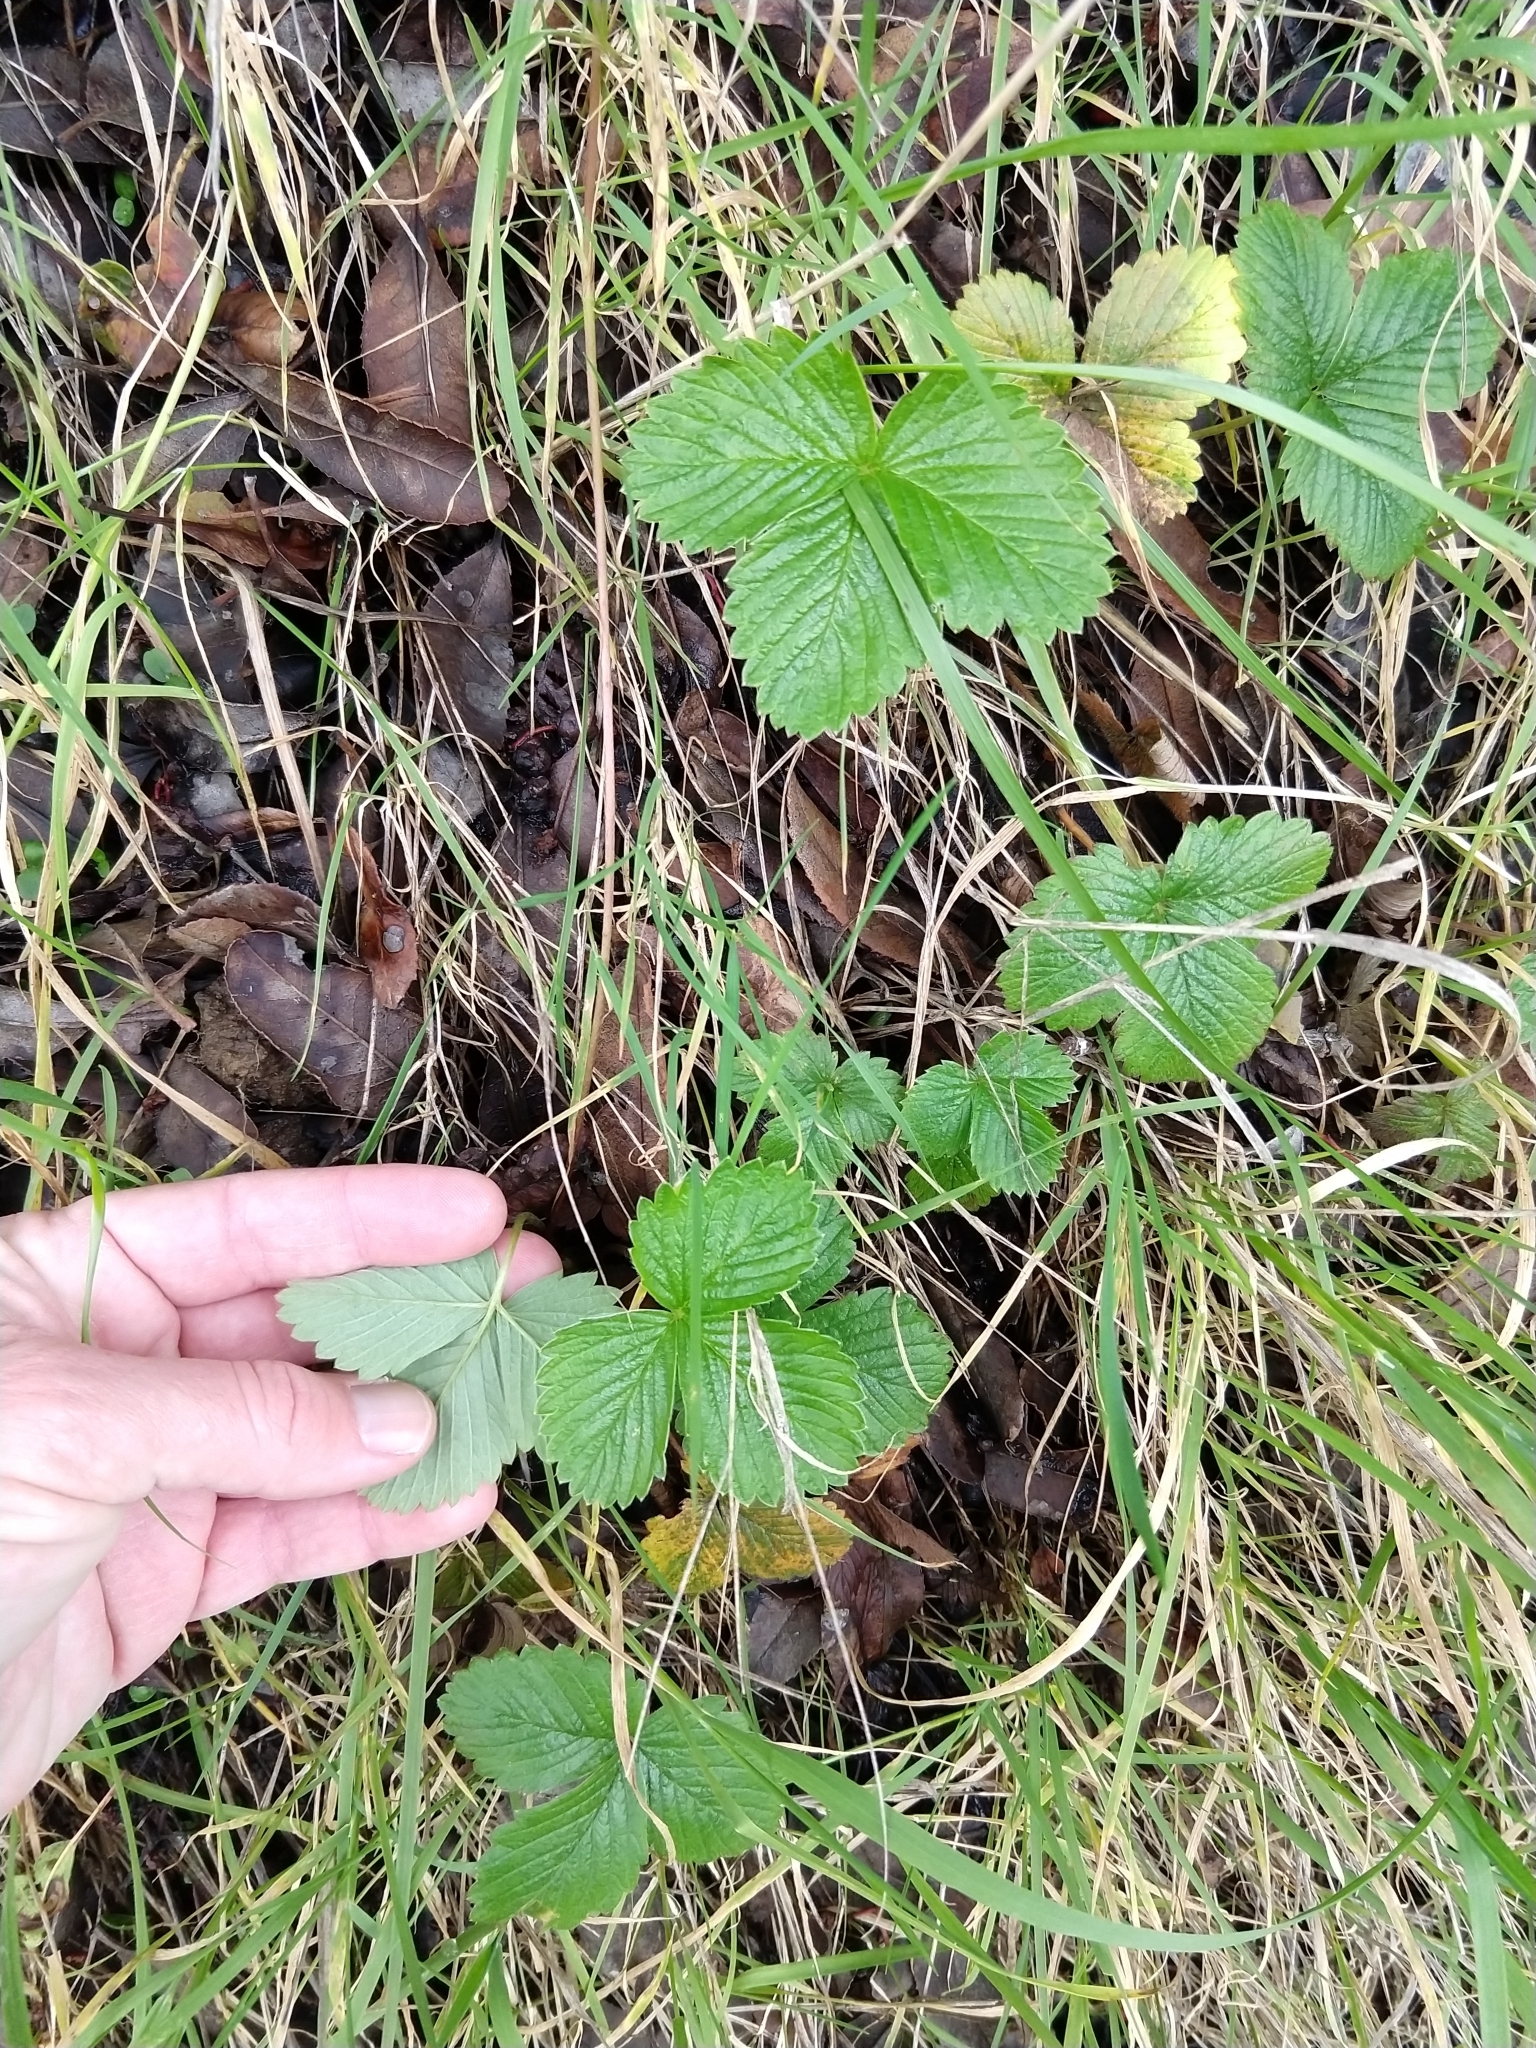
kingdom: Plantae
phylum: Tracheophyta
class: Magnoliopsida
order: Rosales
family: Rosaceae
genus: Fragaria
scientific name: Fragaria vesca
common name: Wild strawberry
